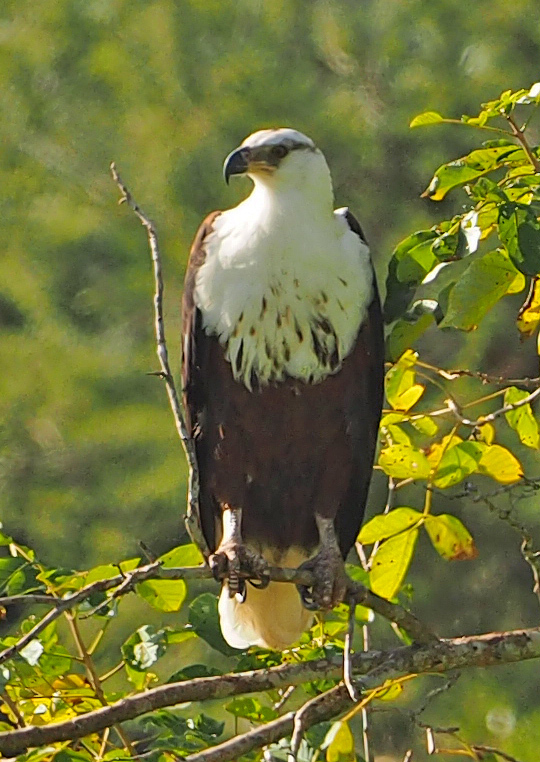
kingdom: Animalia
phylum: Chordata
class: Aves
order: Accipitriformes
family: Accipitridae
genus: Haliaeetus
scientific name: Haliaeetus vocifer
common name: African fish eagle
